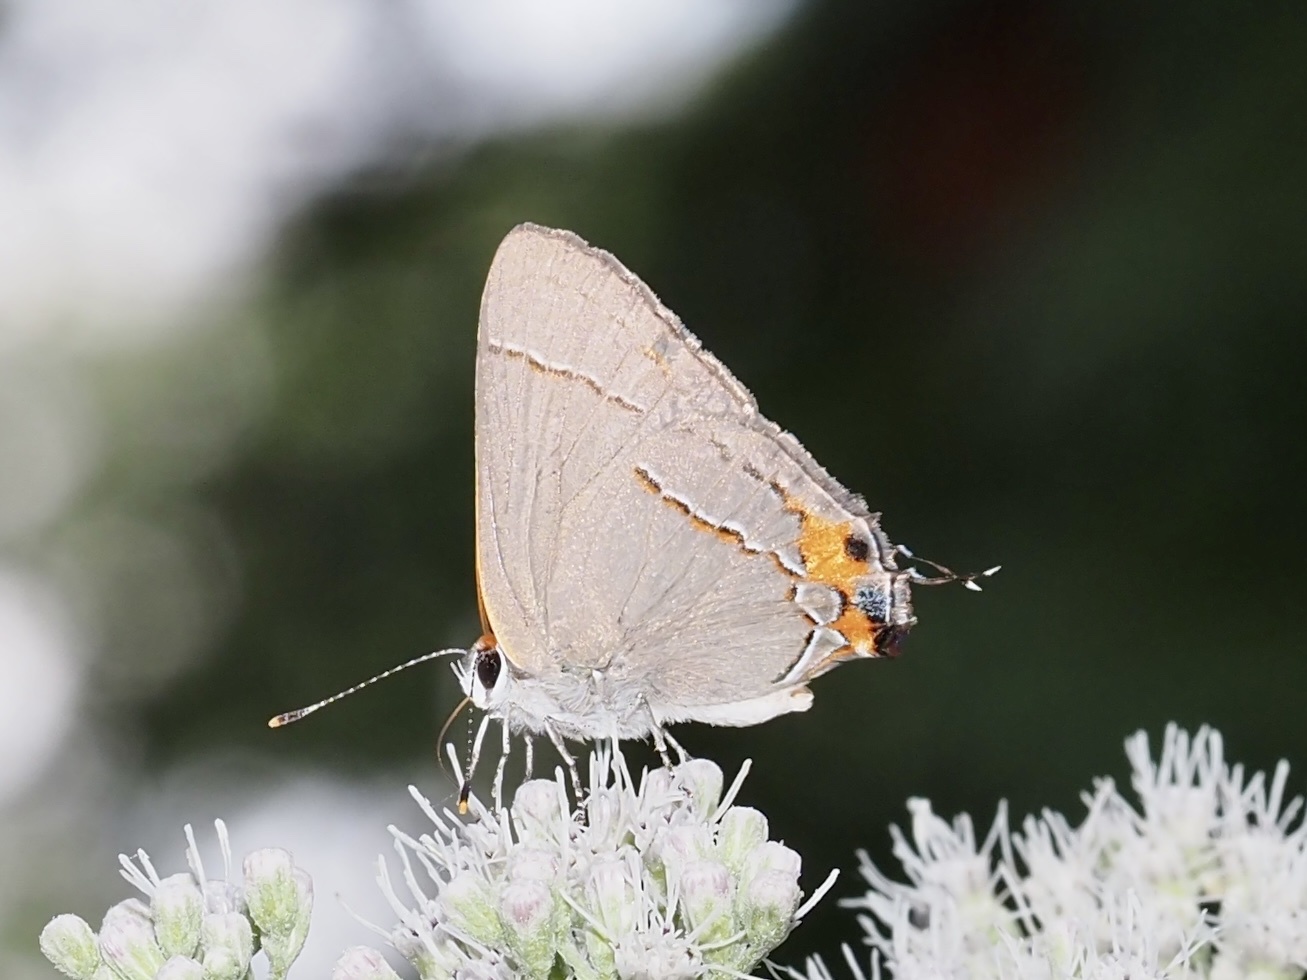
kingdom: Animalia
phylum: Arthropoda
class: Insecta
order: Lepidoptera
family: Lycaenidae
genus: Strymon
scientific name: Strymon melinus
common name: Gray hairstreak
